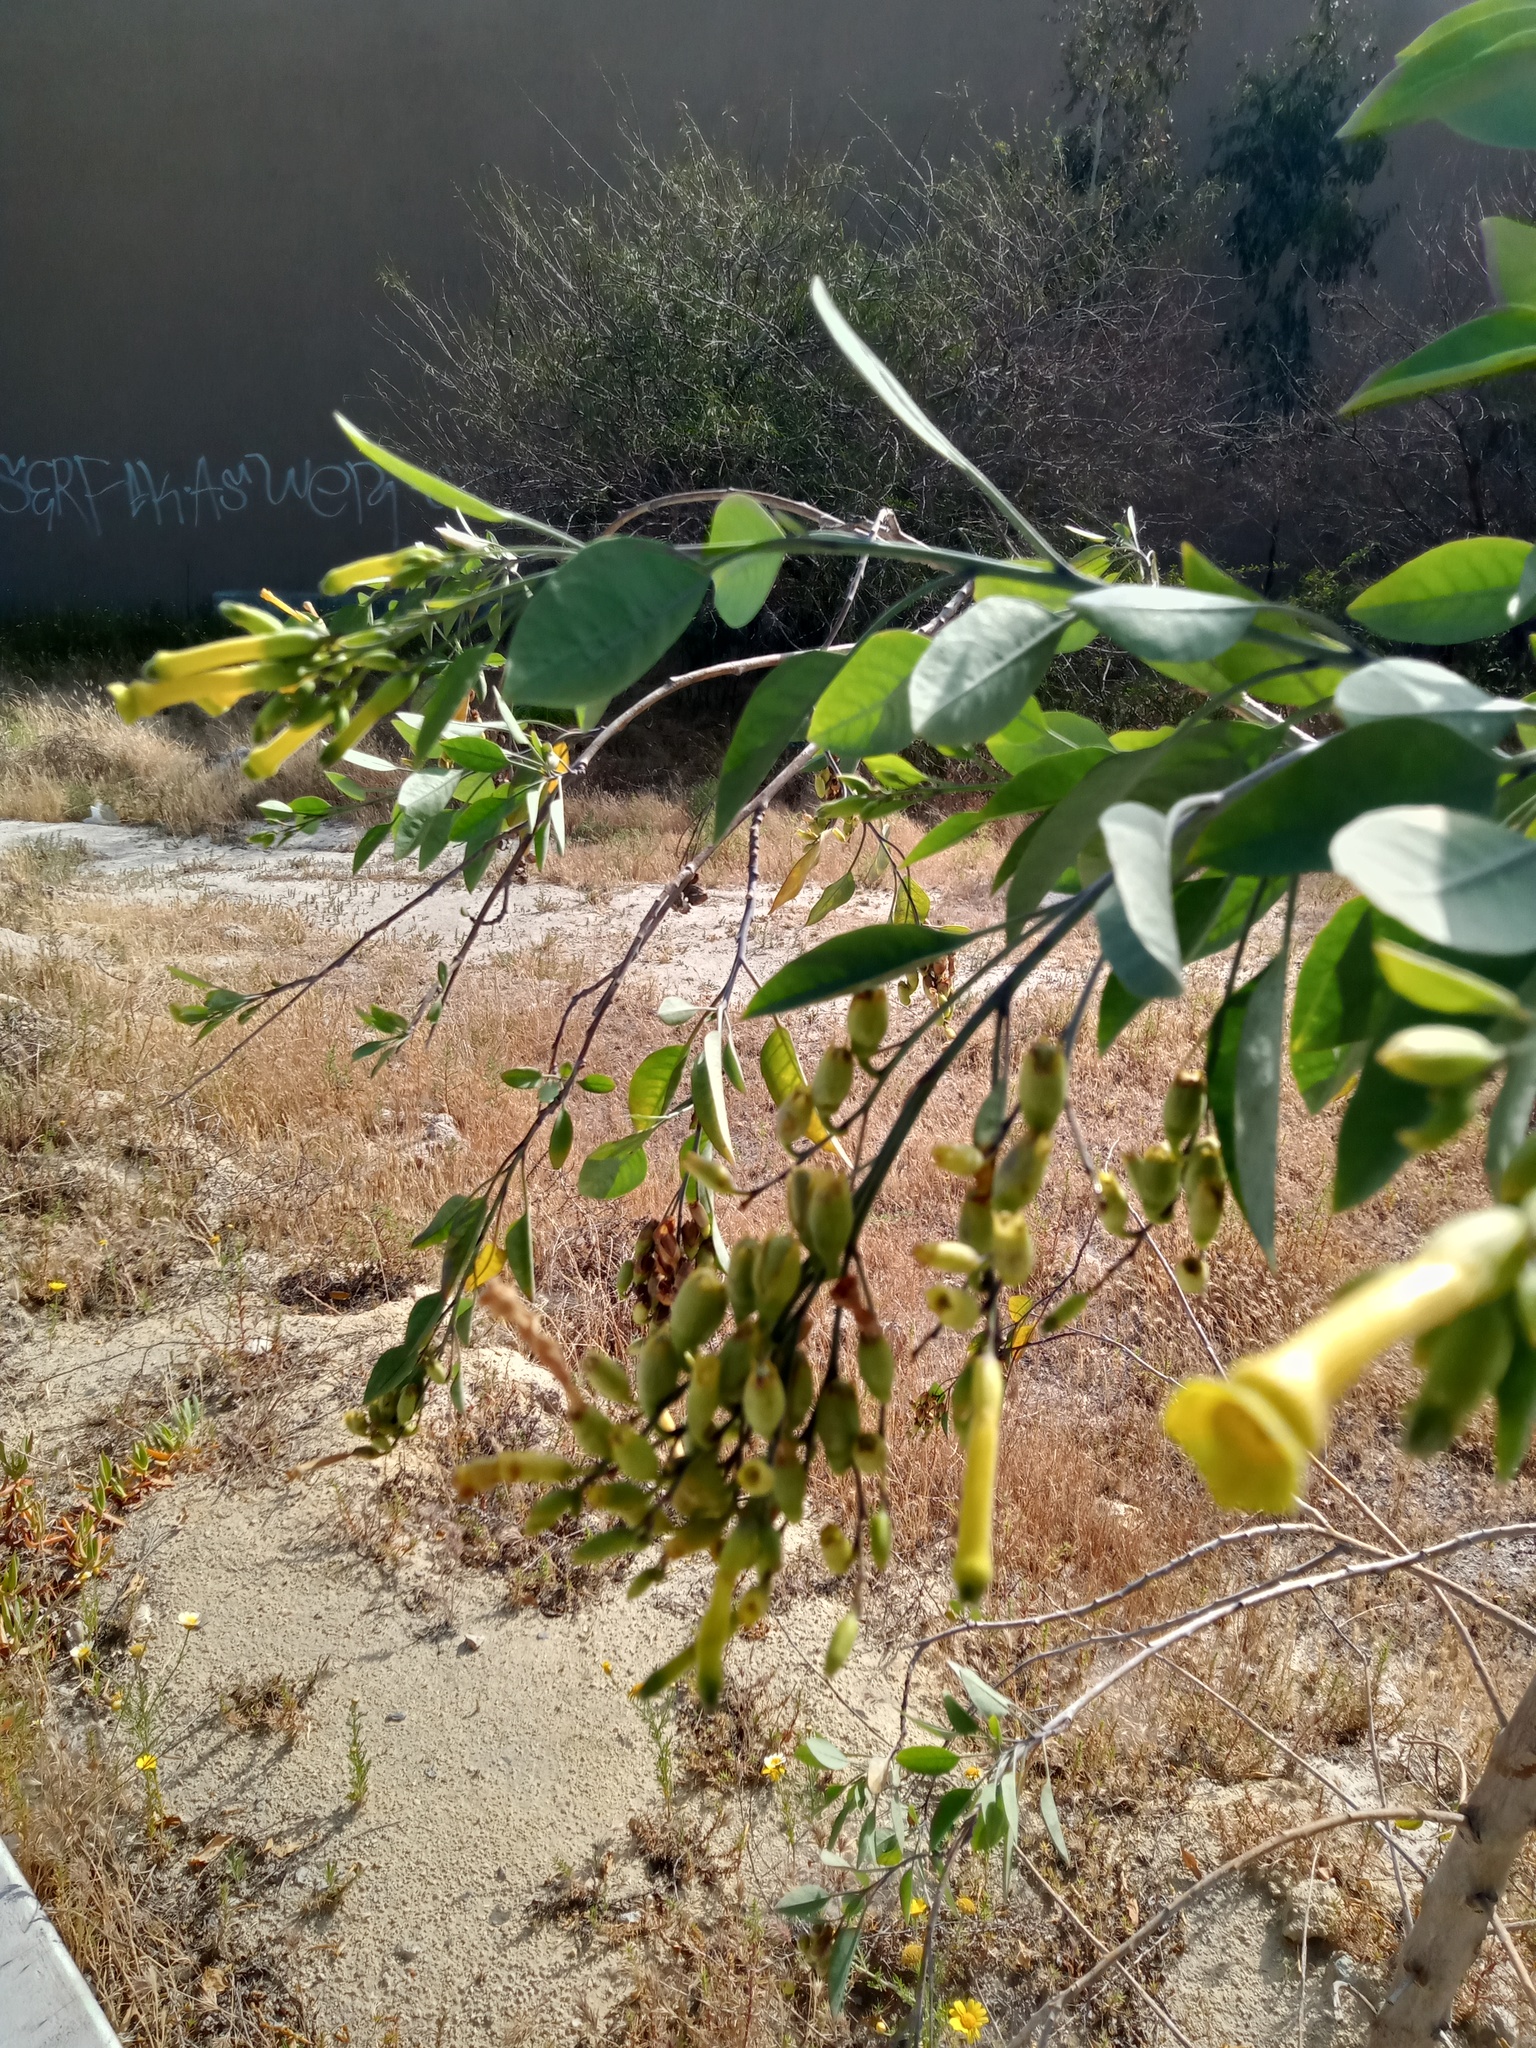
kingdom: Plantae
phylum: Tracheophyta
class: Magnoliopsida
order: Solanales
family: Solanaceae
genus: Nicotiana
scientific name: Nicotiana glauca
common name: Tree tobacco
